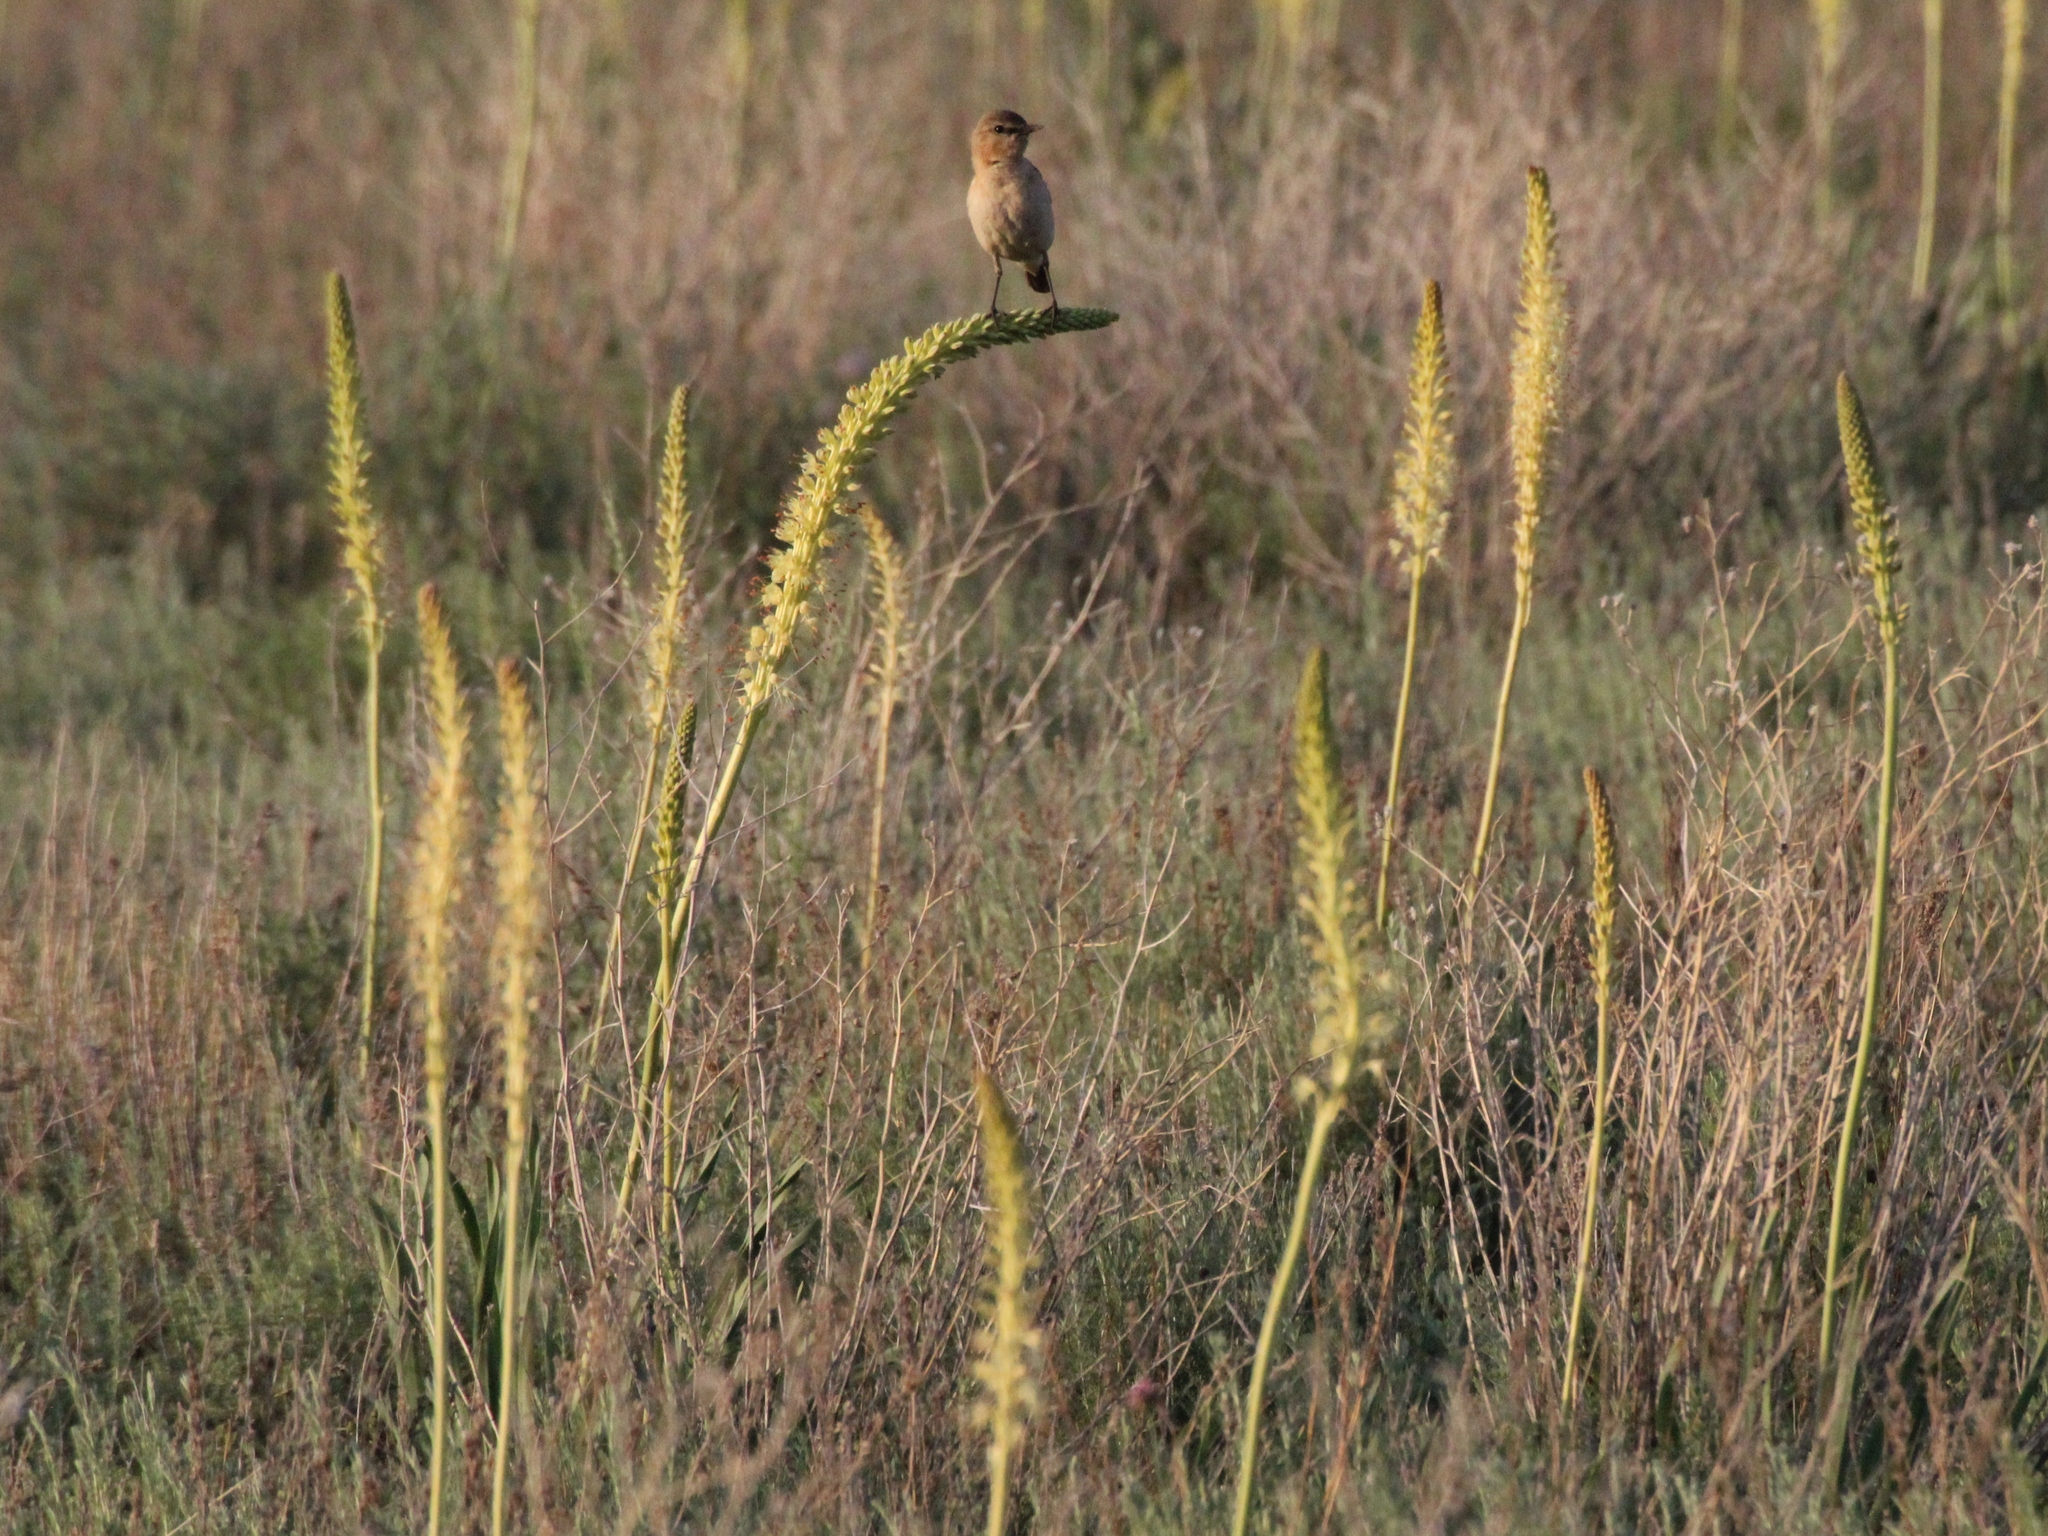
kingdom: Plantae
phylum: Tracheophyta
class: Liliopsida
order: Asparagales
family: Asphodelaceae
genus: Eremurus
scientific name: Eremurus altaicus
